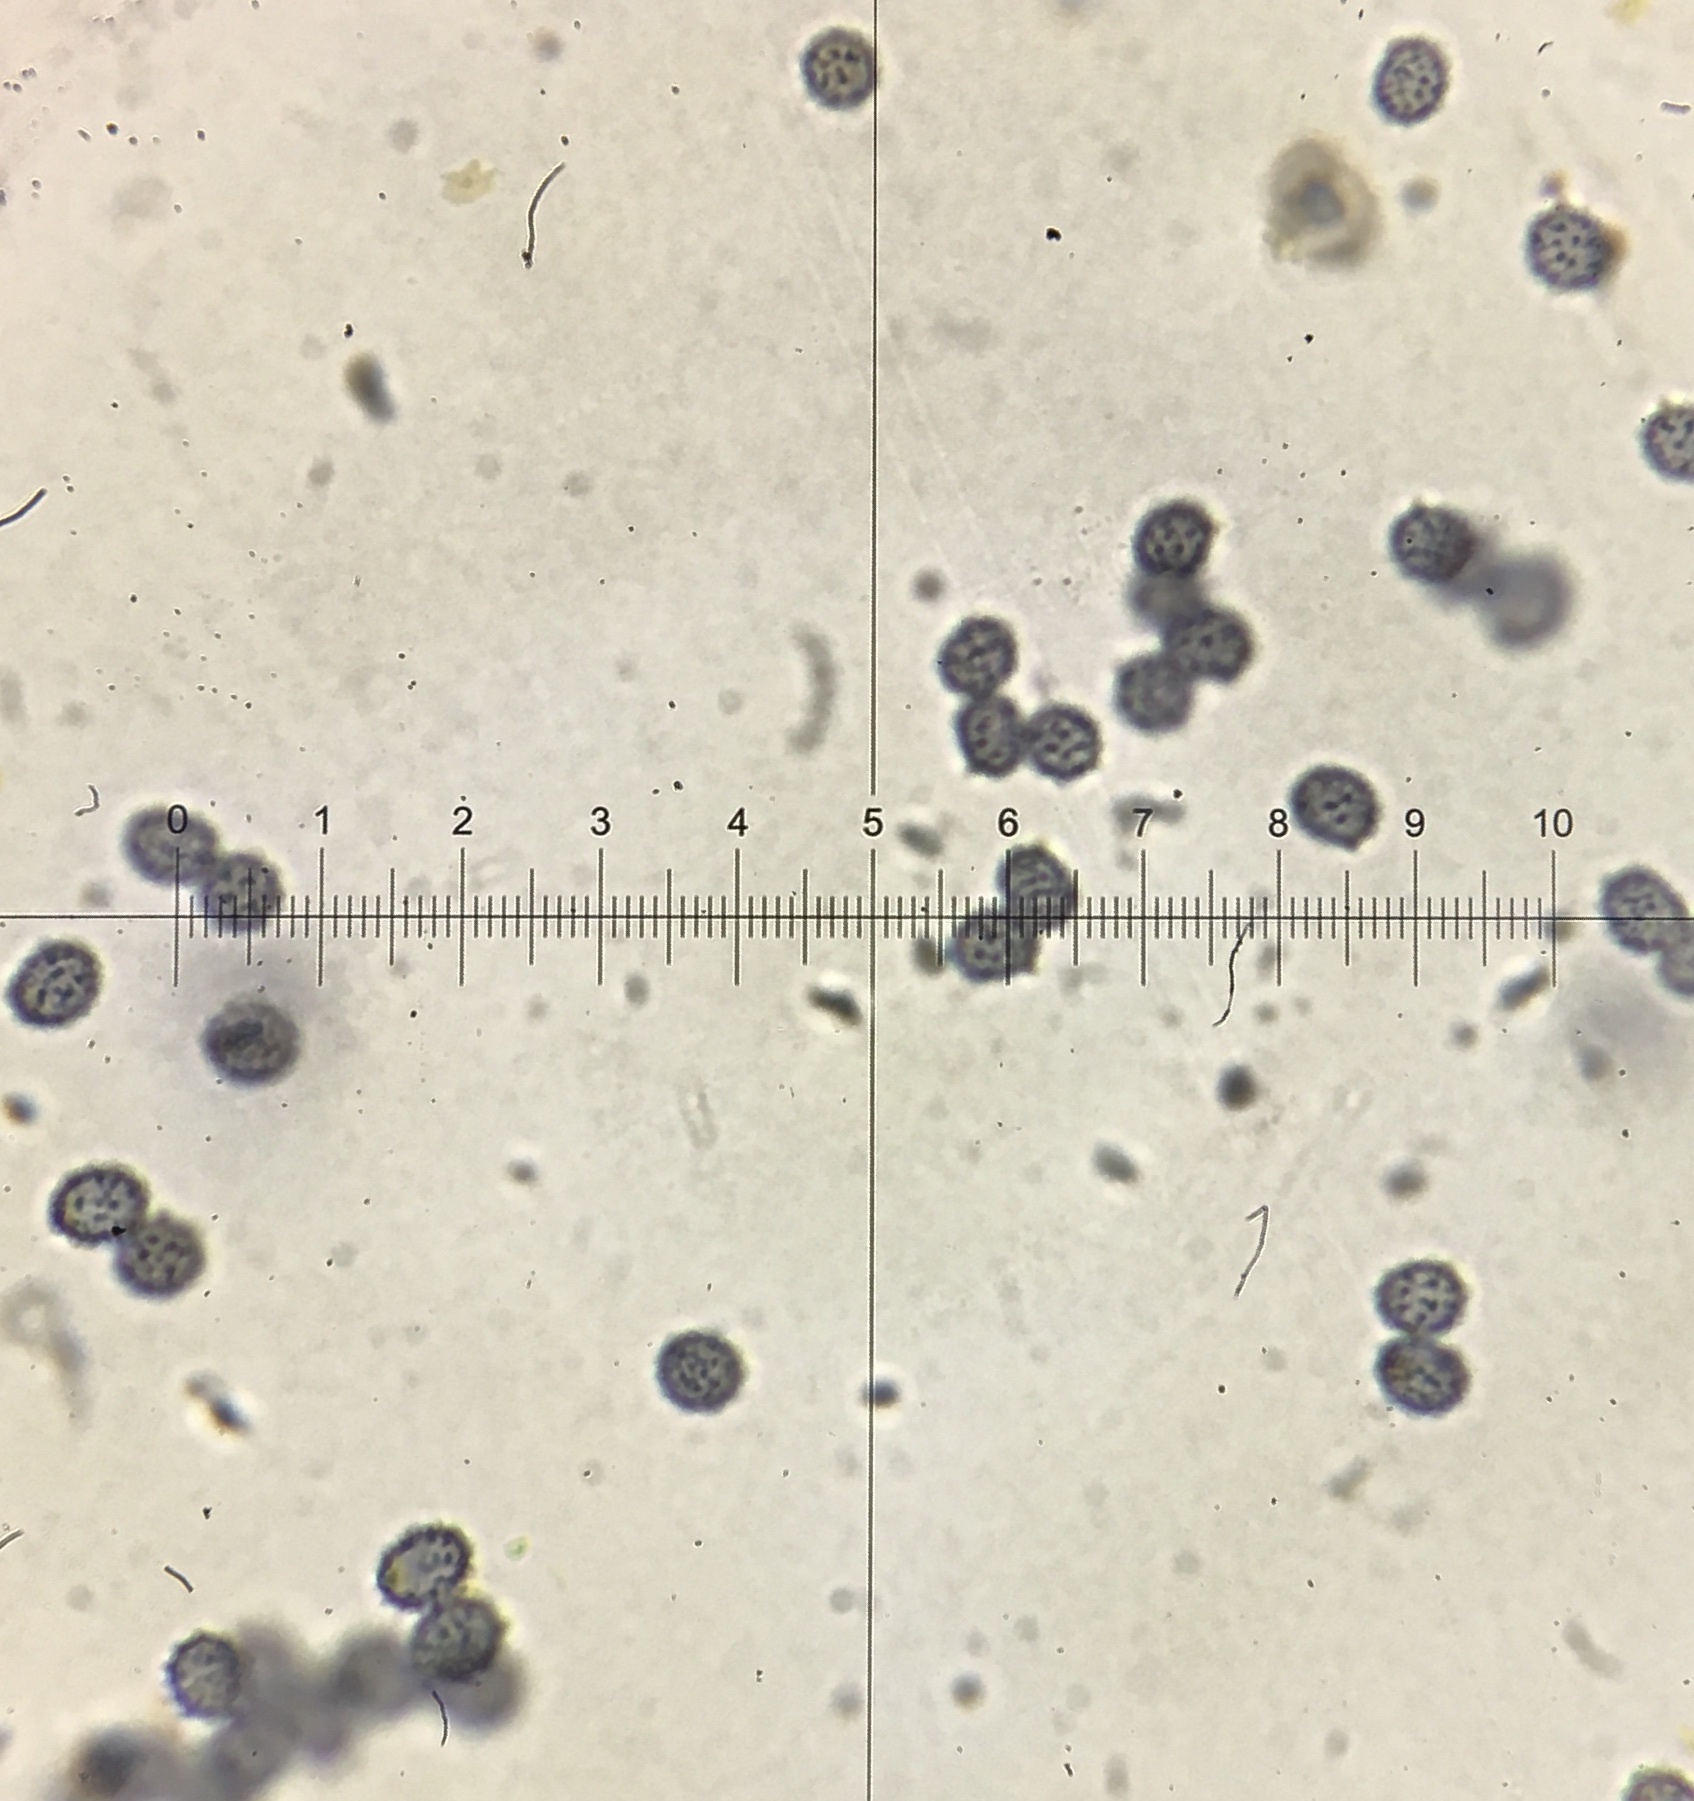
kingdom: Fungi
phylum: Basidiomycota
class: Agaricomycetes
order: Russulales
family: Russulaceae
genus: Russula
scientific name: Russula aeruginea
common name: Green brittlegill
